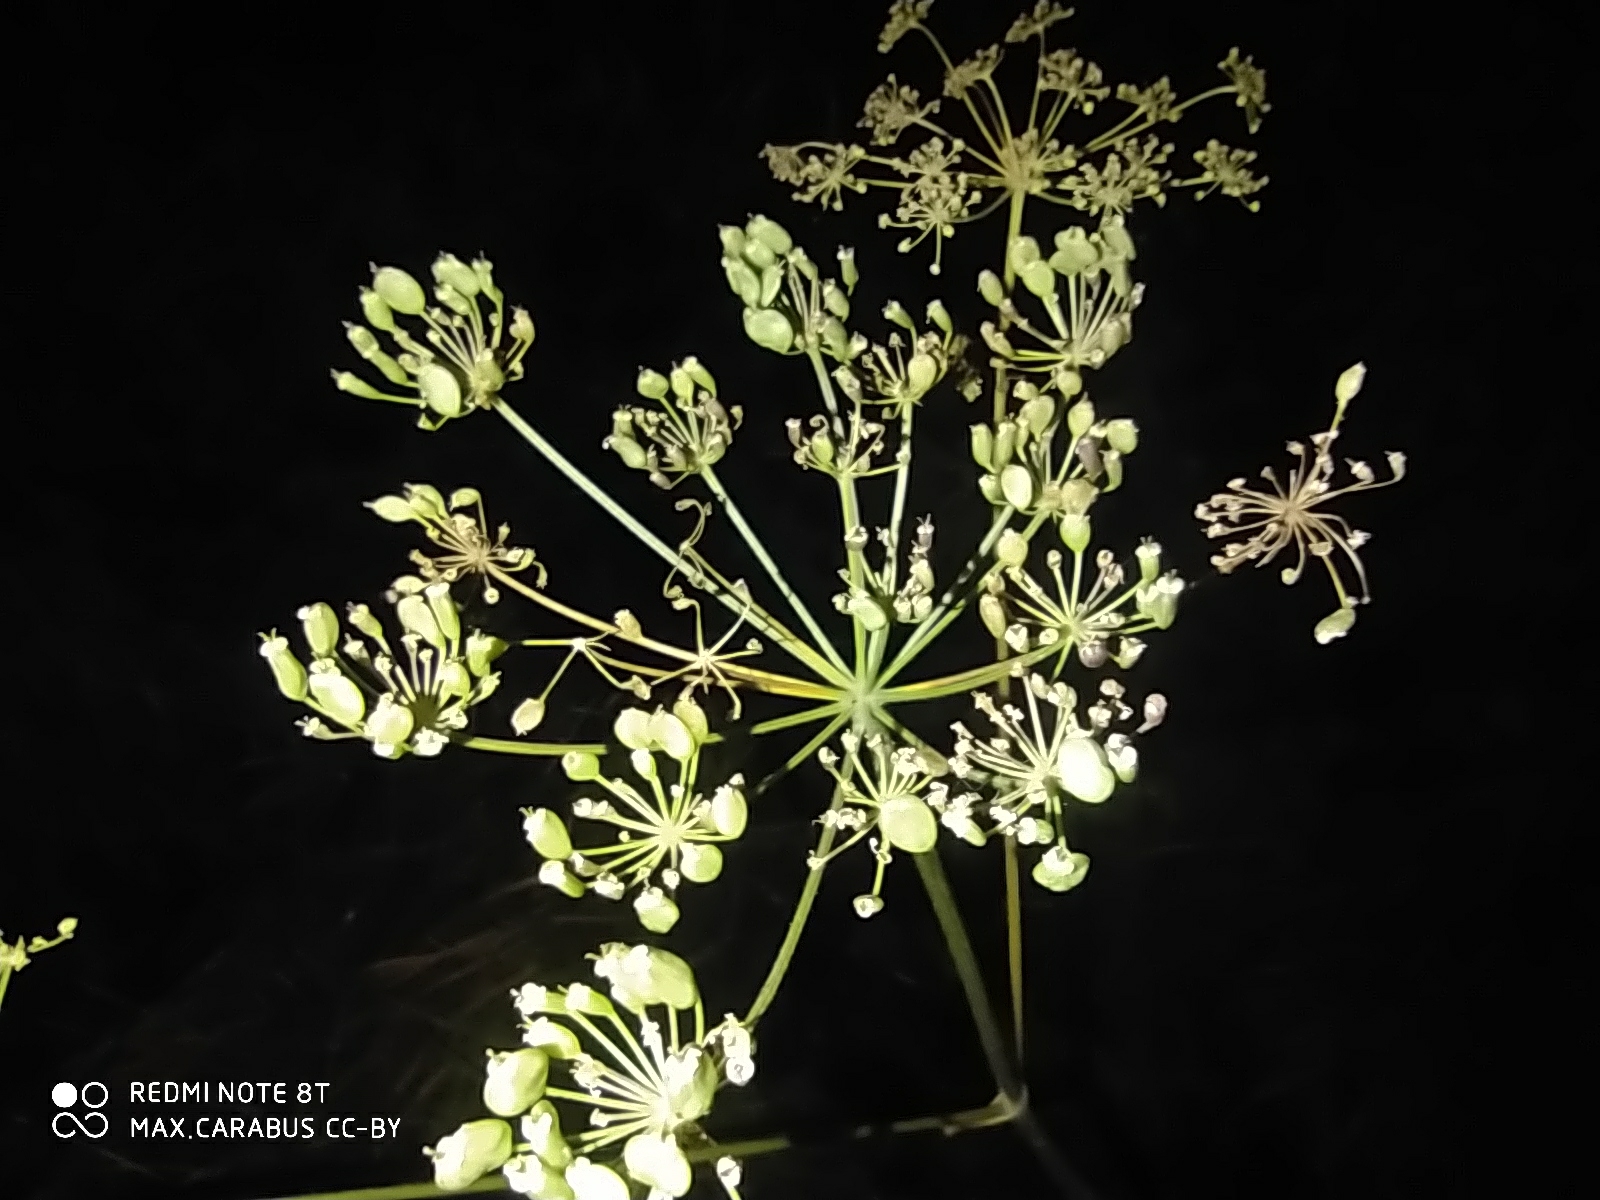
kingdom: Plantae
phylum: Tracheophyta
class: Magnoliopsida
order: Apiales
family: Apiaceae
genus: Heracleum
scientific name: Heracleum sphondylium
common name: Hogweed
